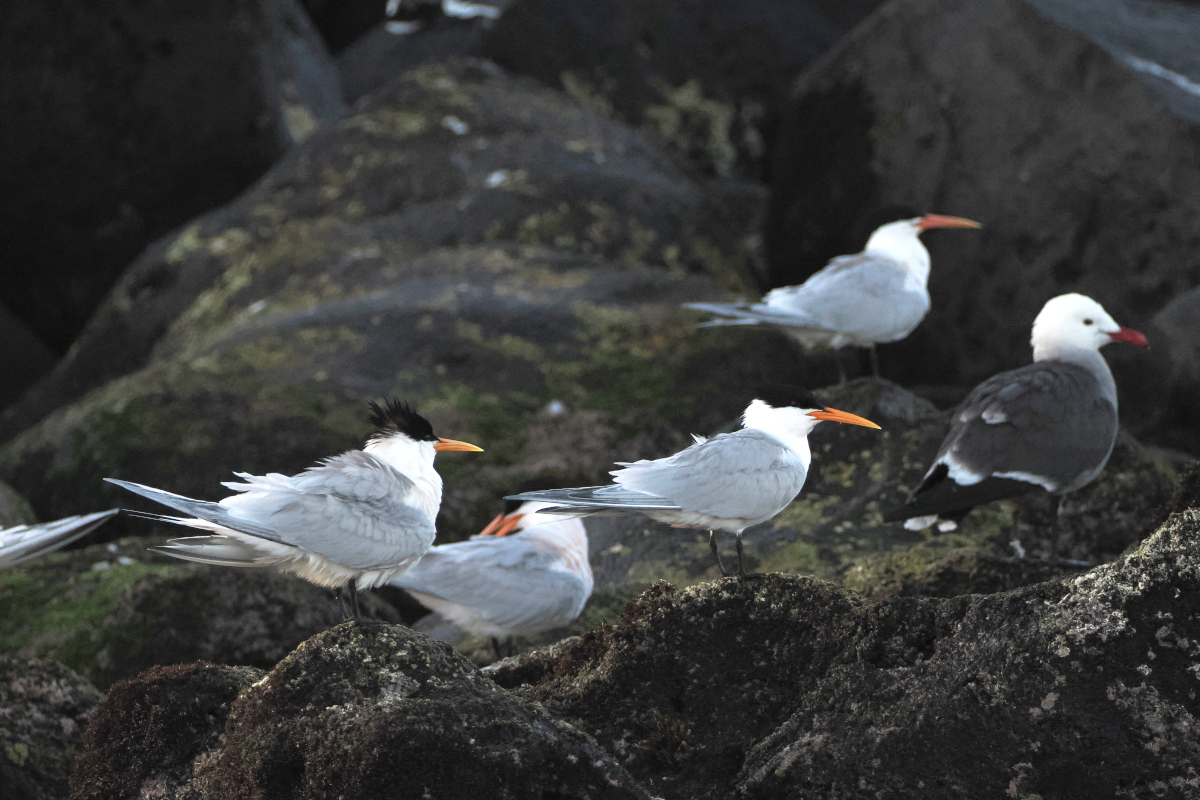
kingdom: Animalia
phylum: Chordata
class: Aves
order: Charadriiformes
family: Laridae
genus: Thalasseus
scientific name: Thalasseus elegans
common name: Elegant tern
